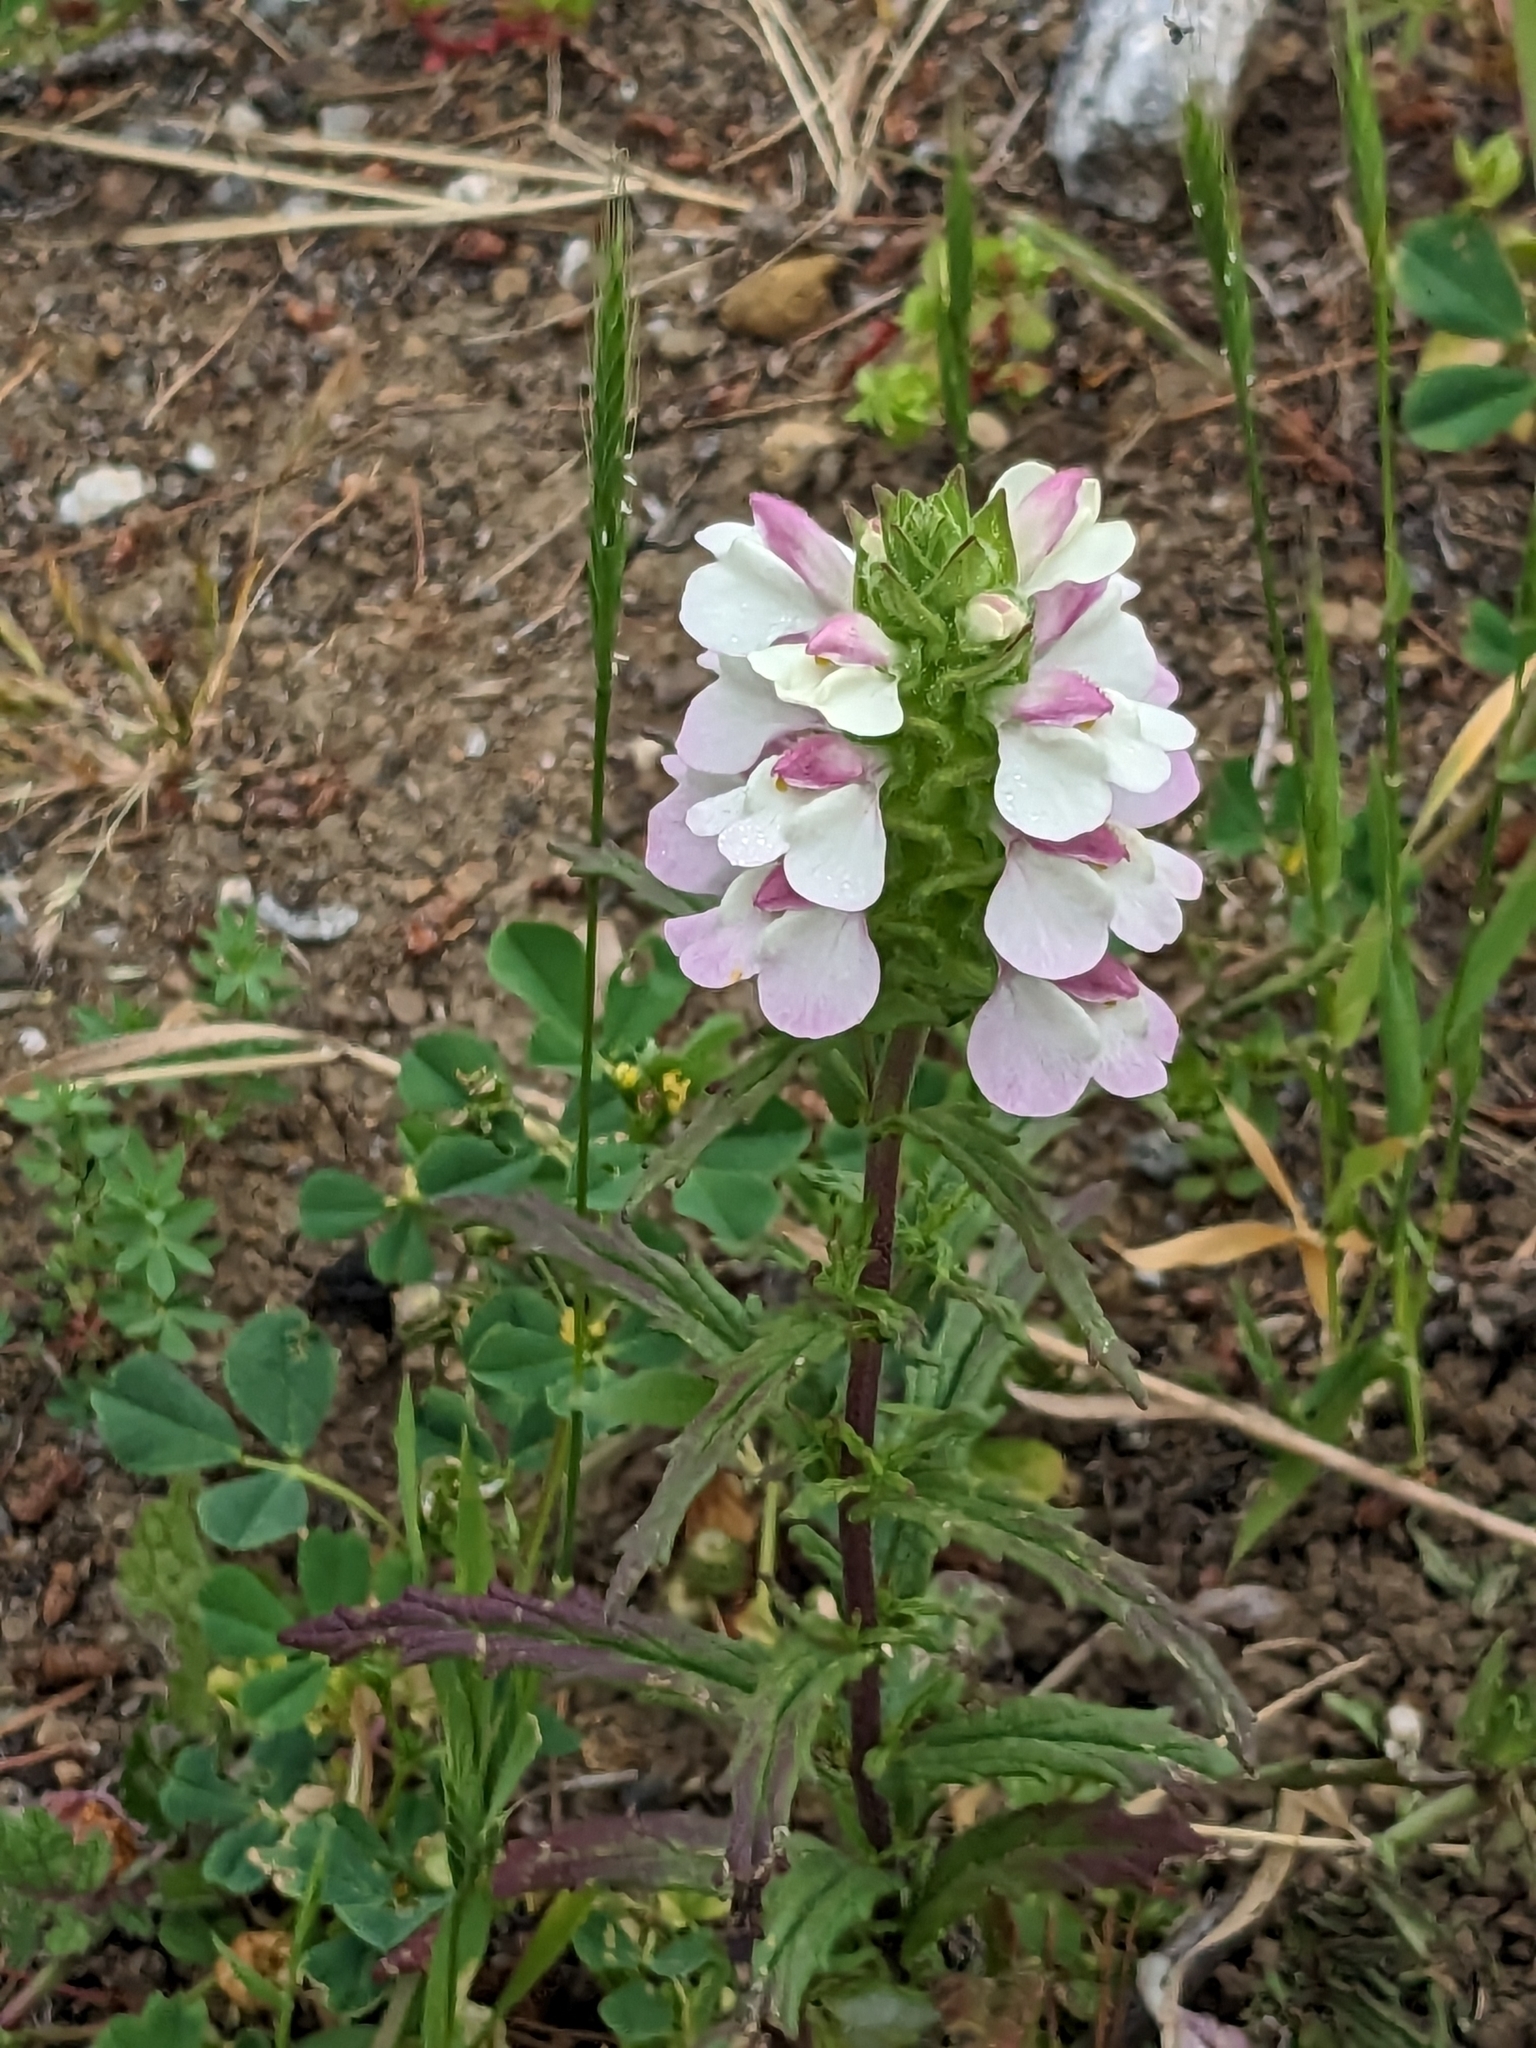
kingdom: Plantae
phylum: Tracheophyta
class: Magnoliopsida
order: Lamiales
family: Orobanchaceae
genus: Bellardia
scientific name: Bellardia trixago
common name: Mediterranean lineseed
